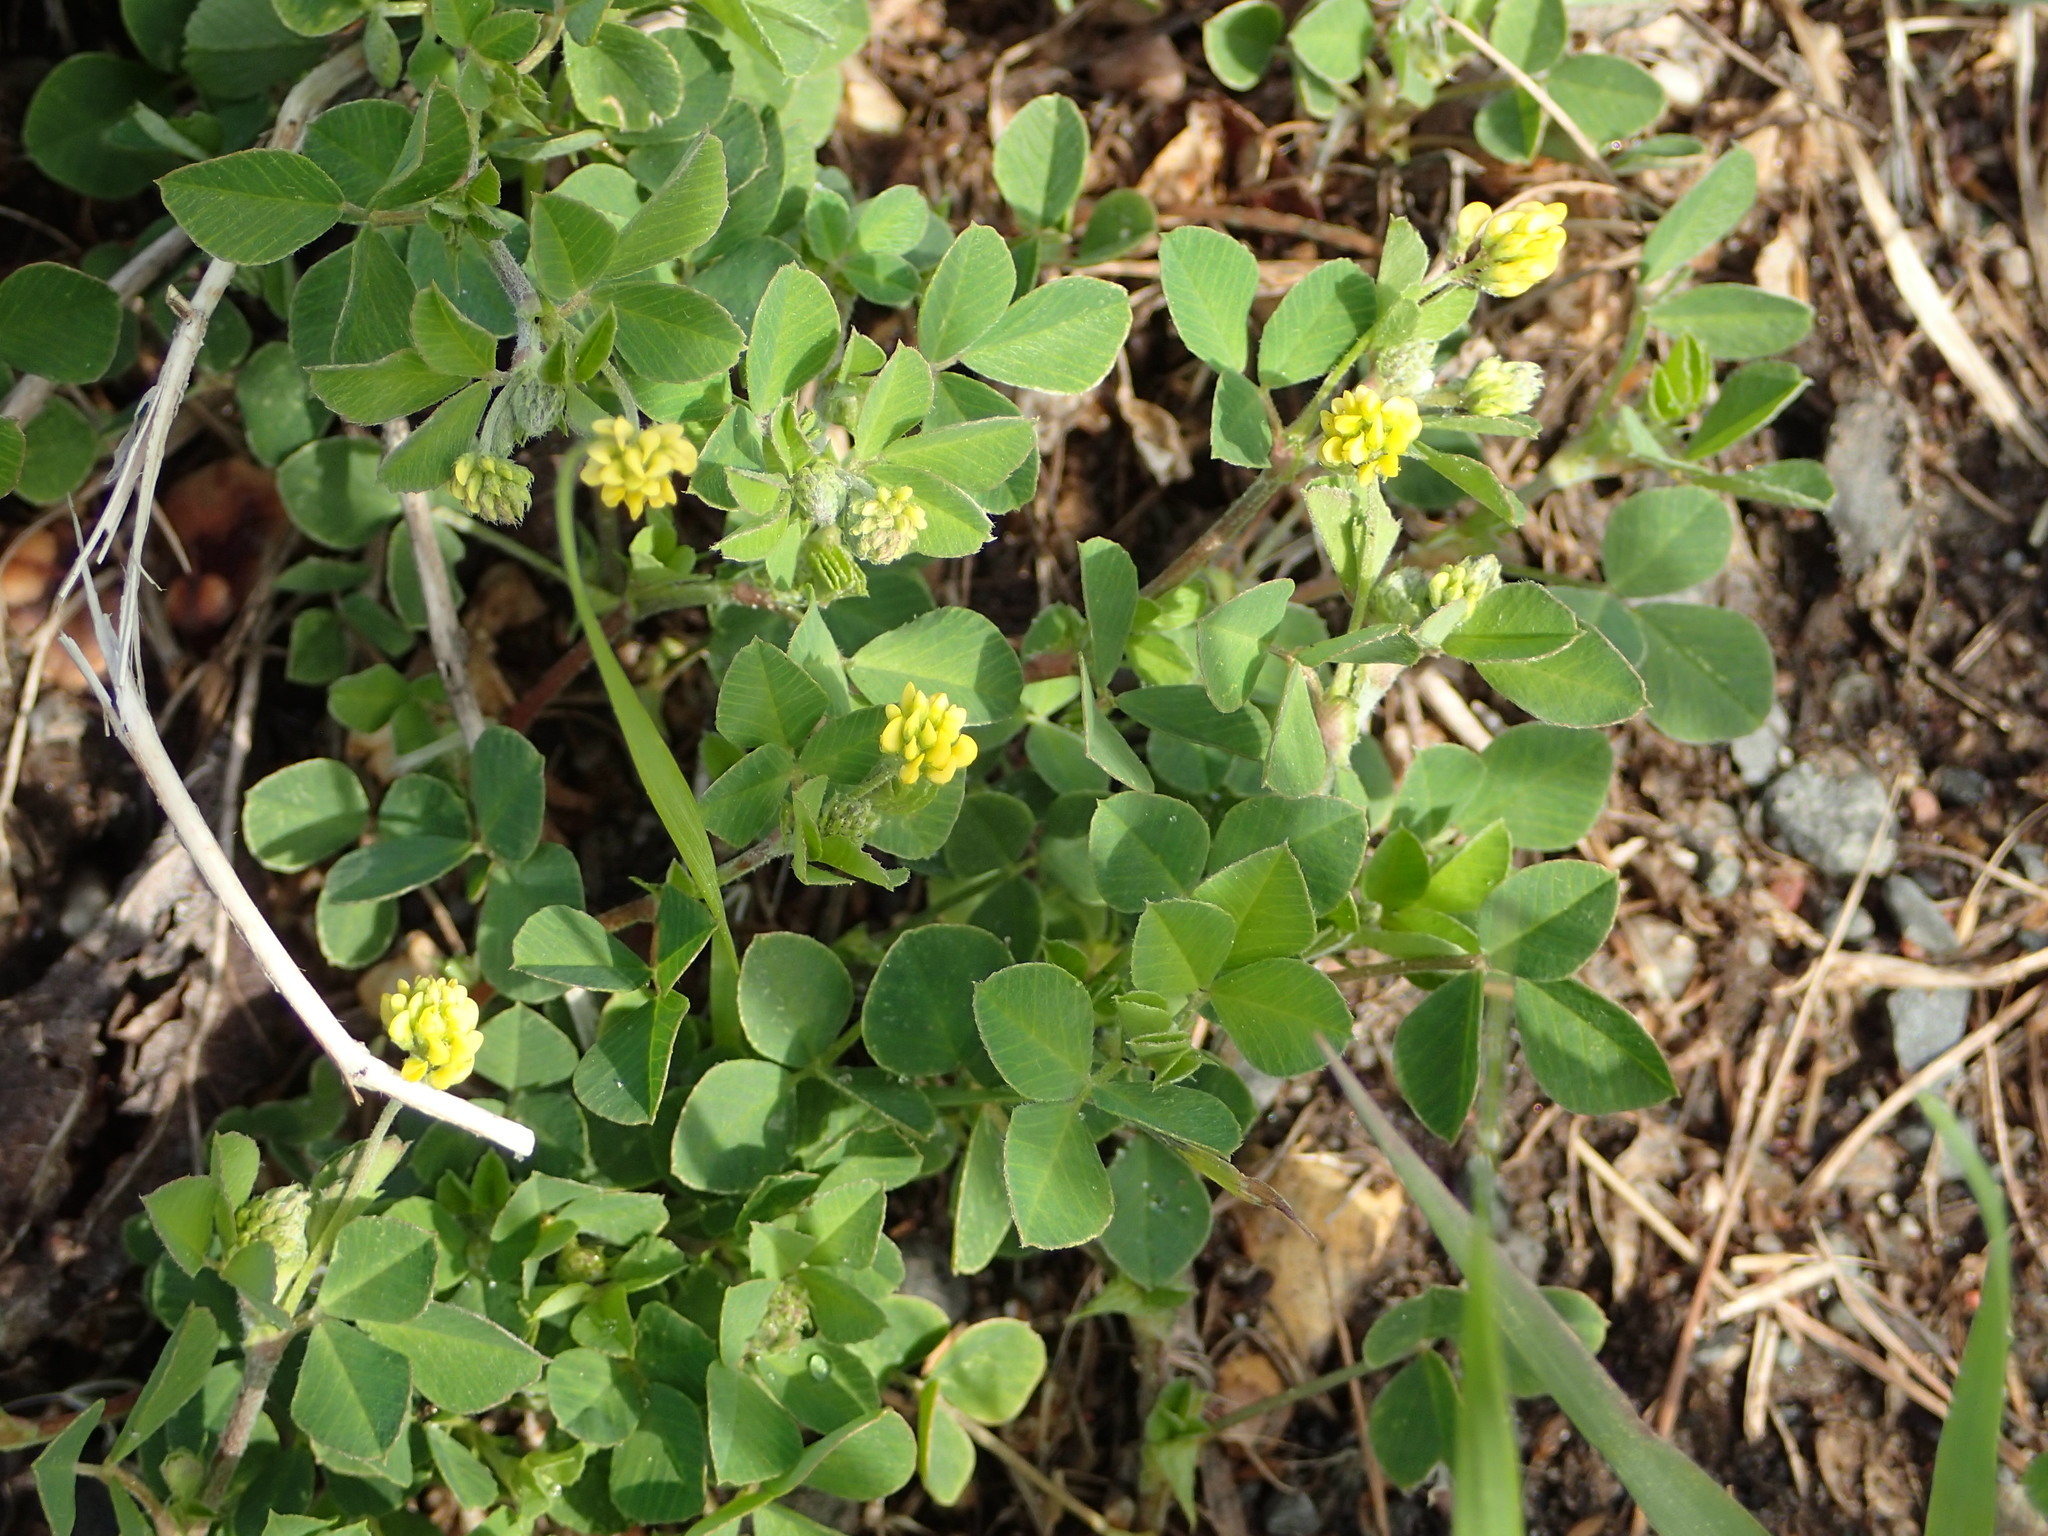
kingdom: Plantae
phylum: Tracheophyta
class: Magnoliopsida
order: Fabales
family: Fabaceae
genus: Medicago
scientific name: Medicago lupulina
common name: Black medick
